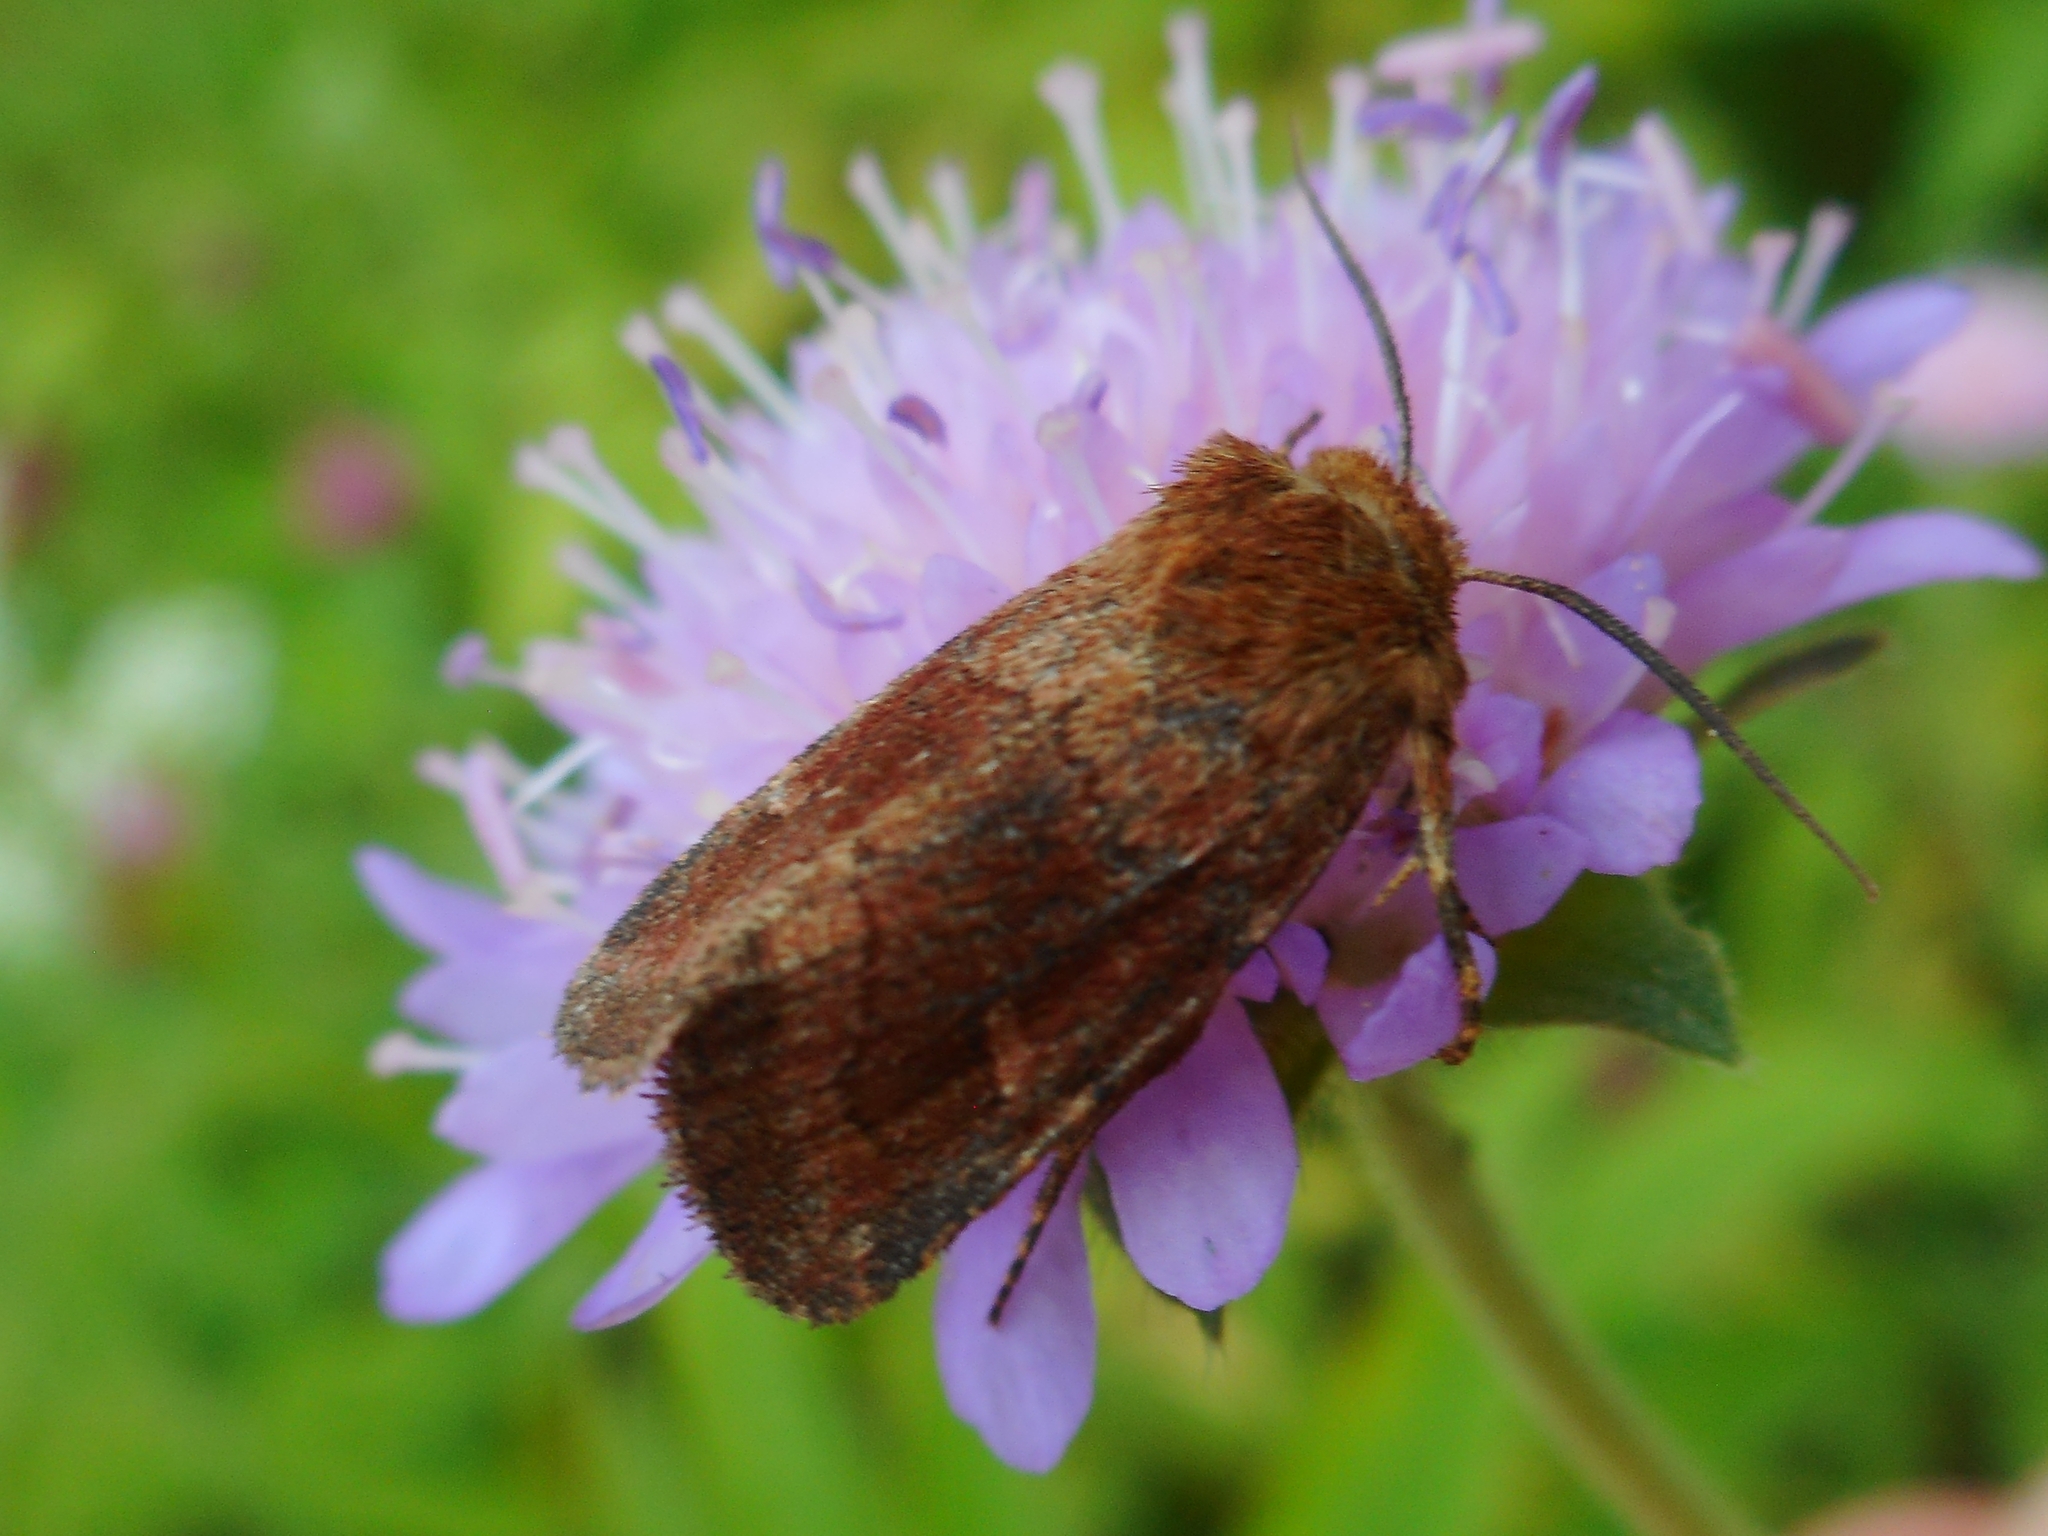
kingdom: Animalia
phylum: Arthropoda
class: Insecta
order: Lepidoptera
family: Noctuidae
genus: Lasionycta
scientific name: Lasionycta Eriopygodes imbecillus
